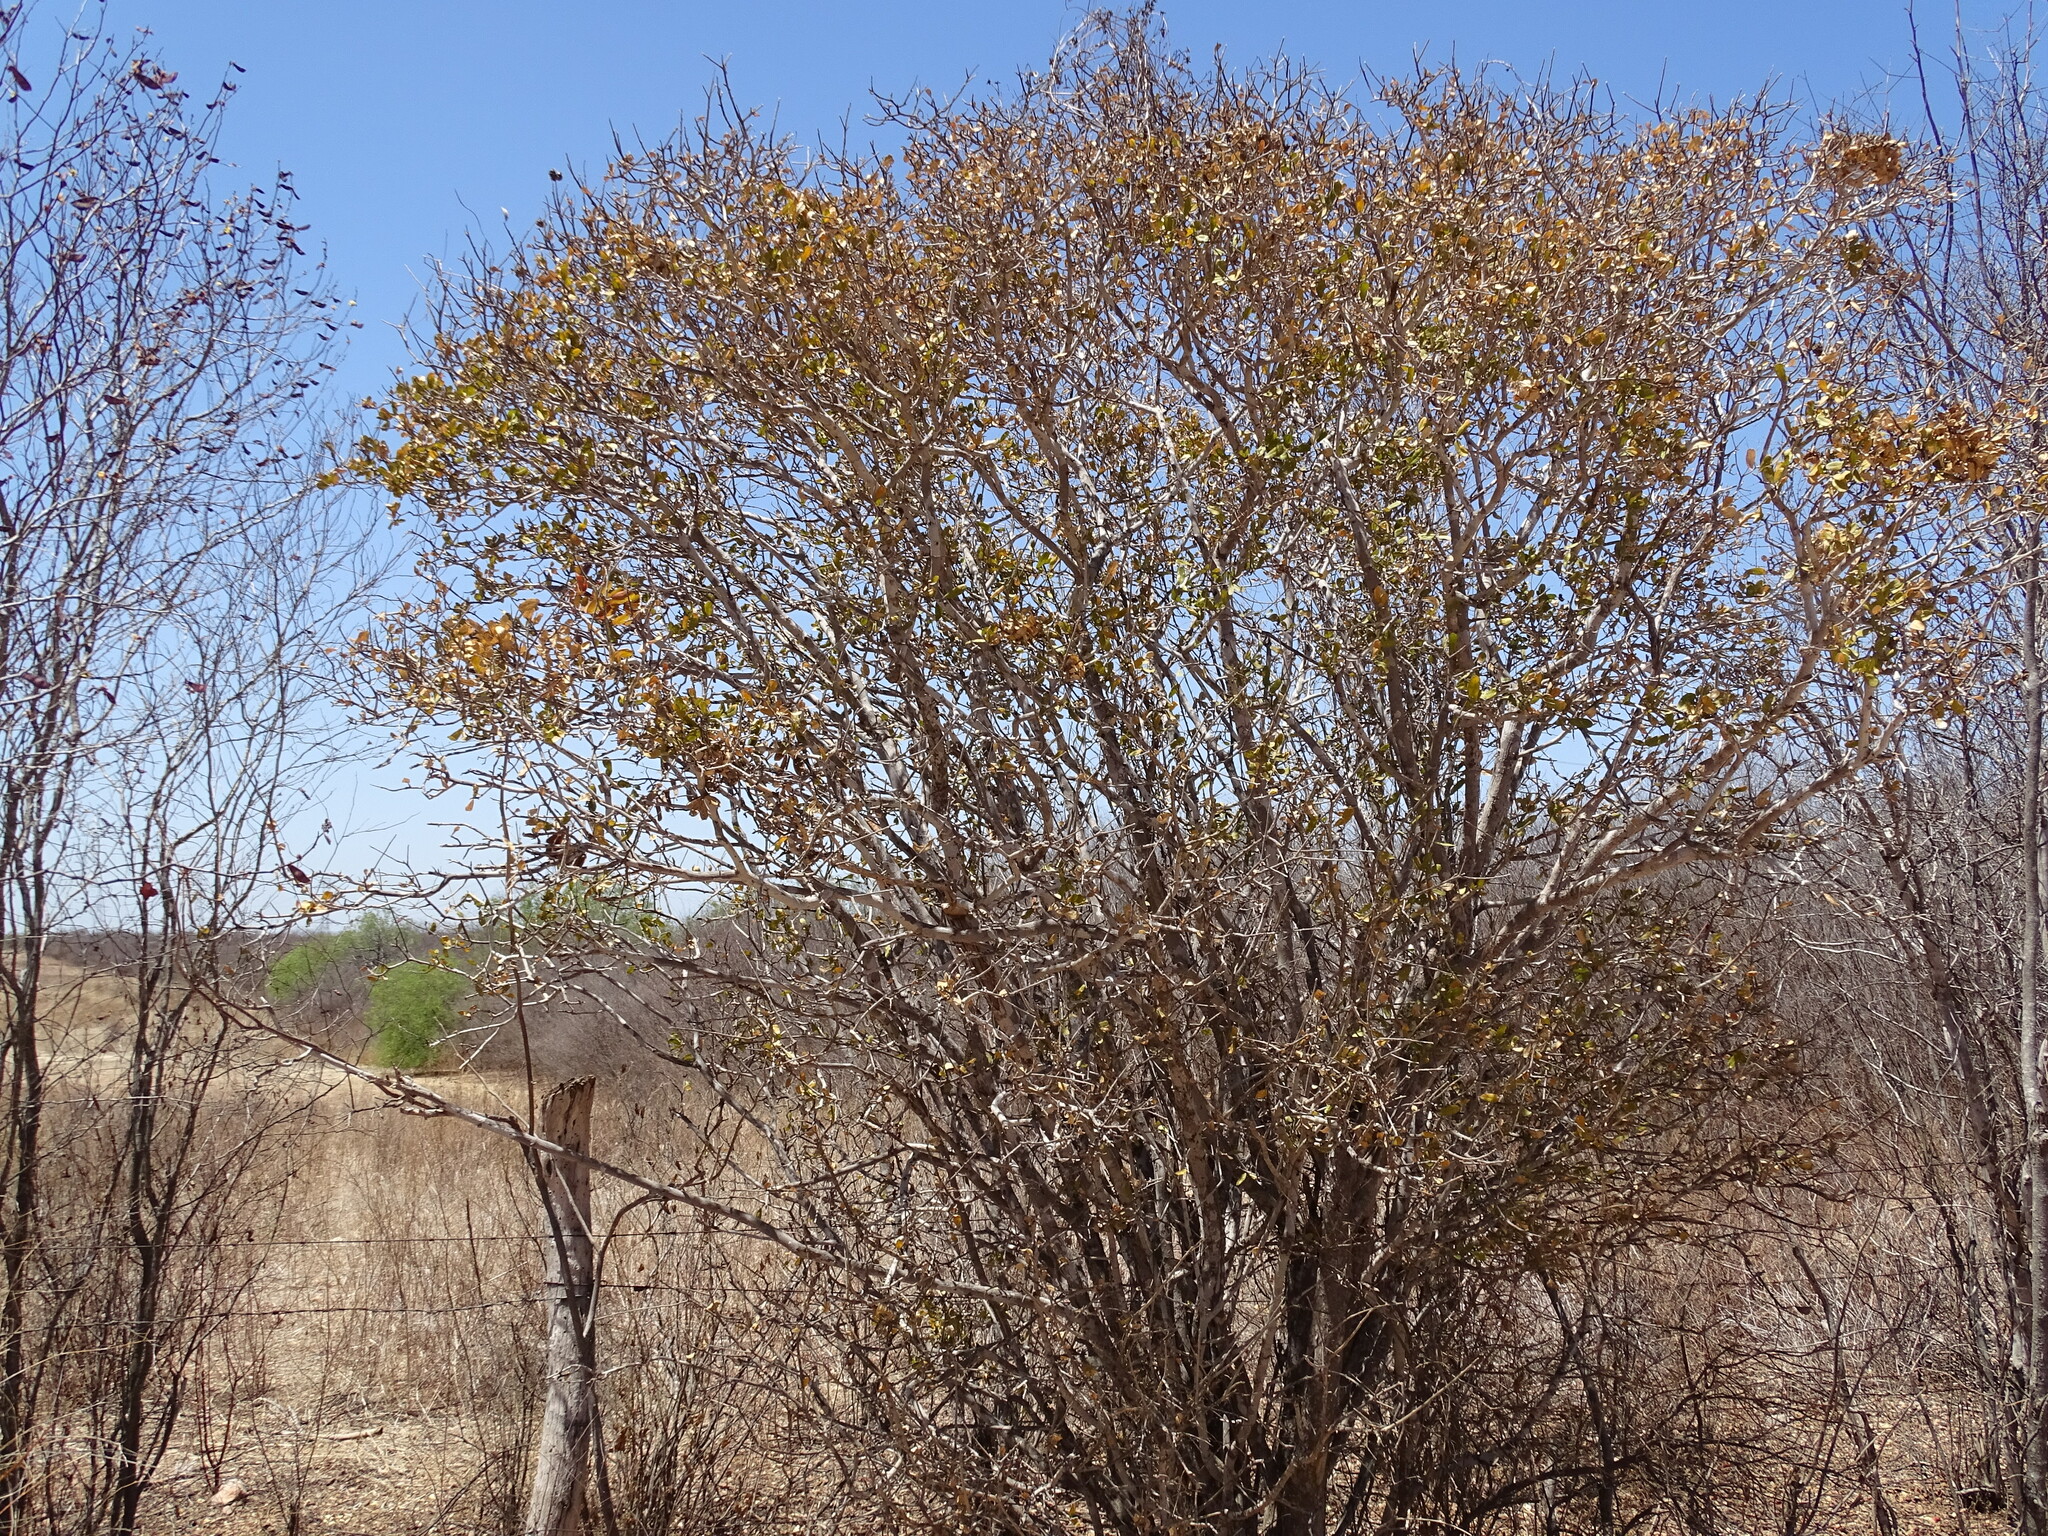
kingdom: Plantae
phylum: Tracheophyta
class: Magnoliopsida
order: Malpighiales
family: Euphorbiaceae
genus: Adelia
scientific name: Adelia brandegeei
